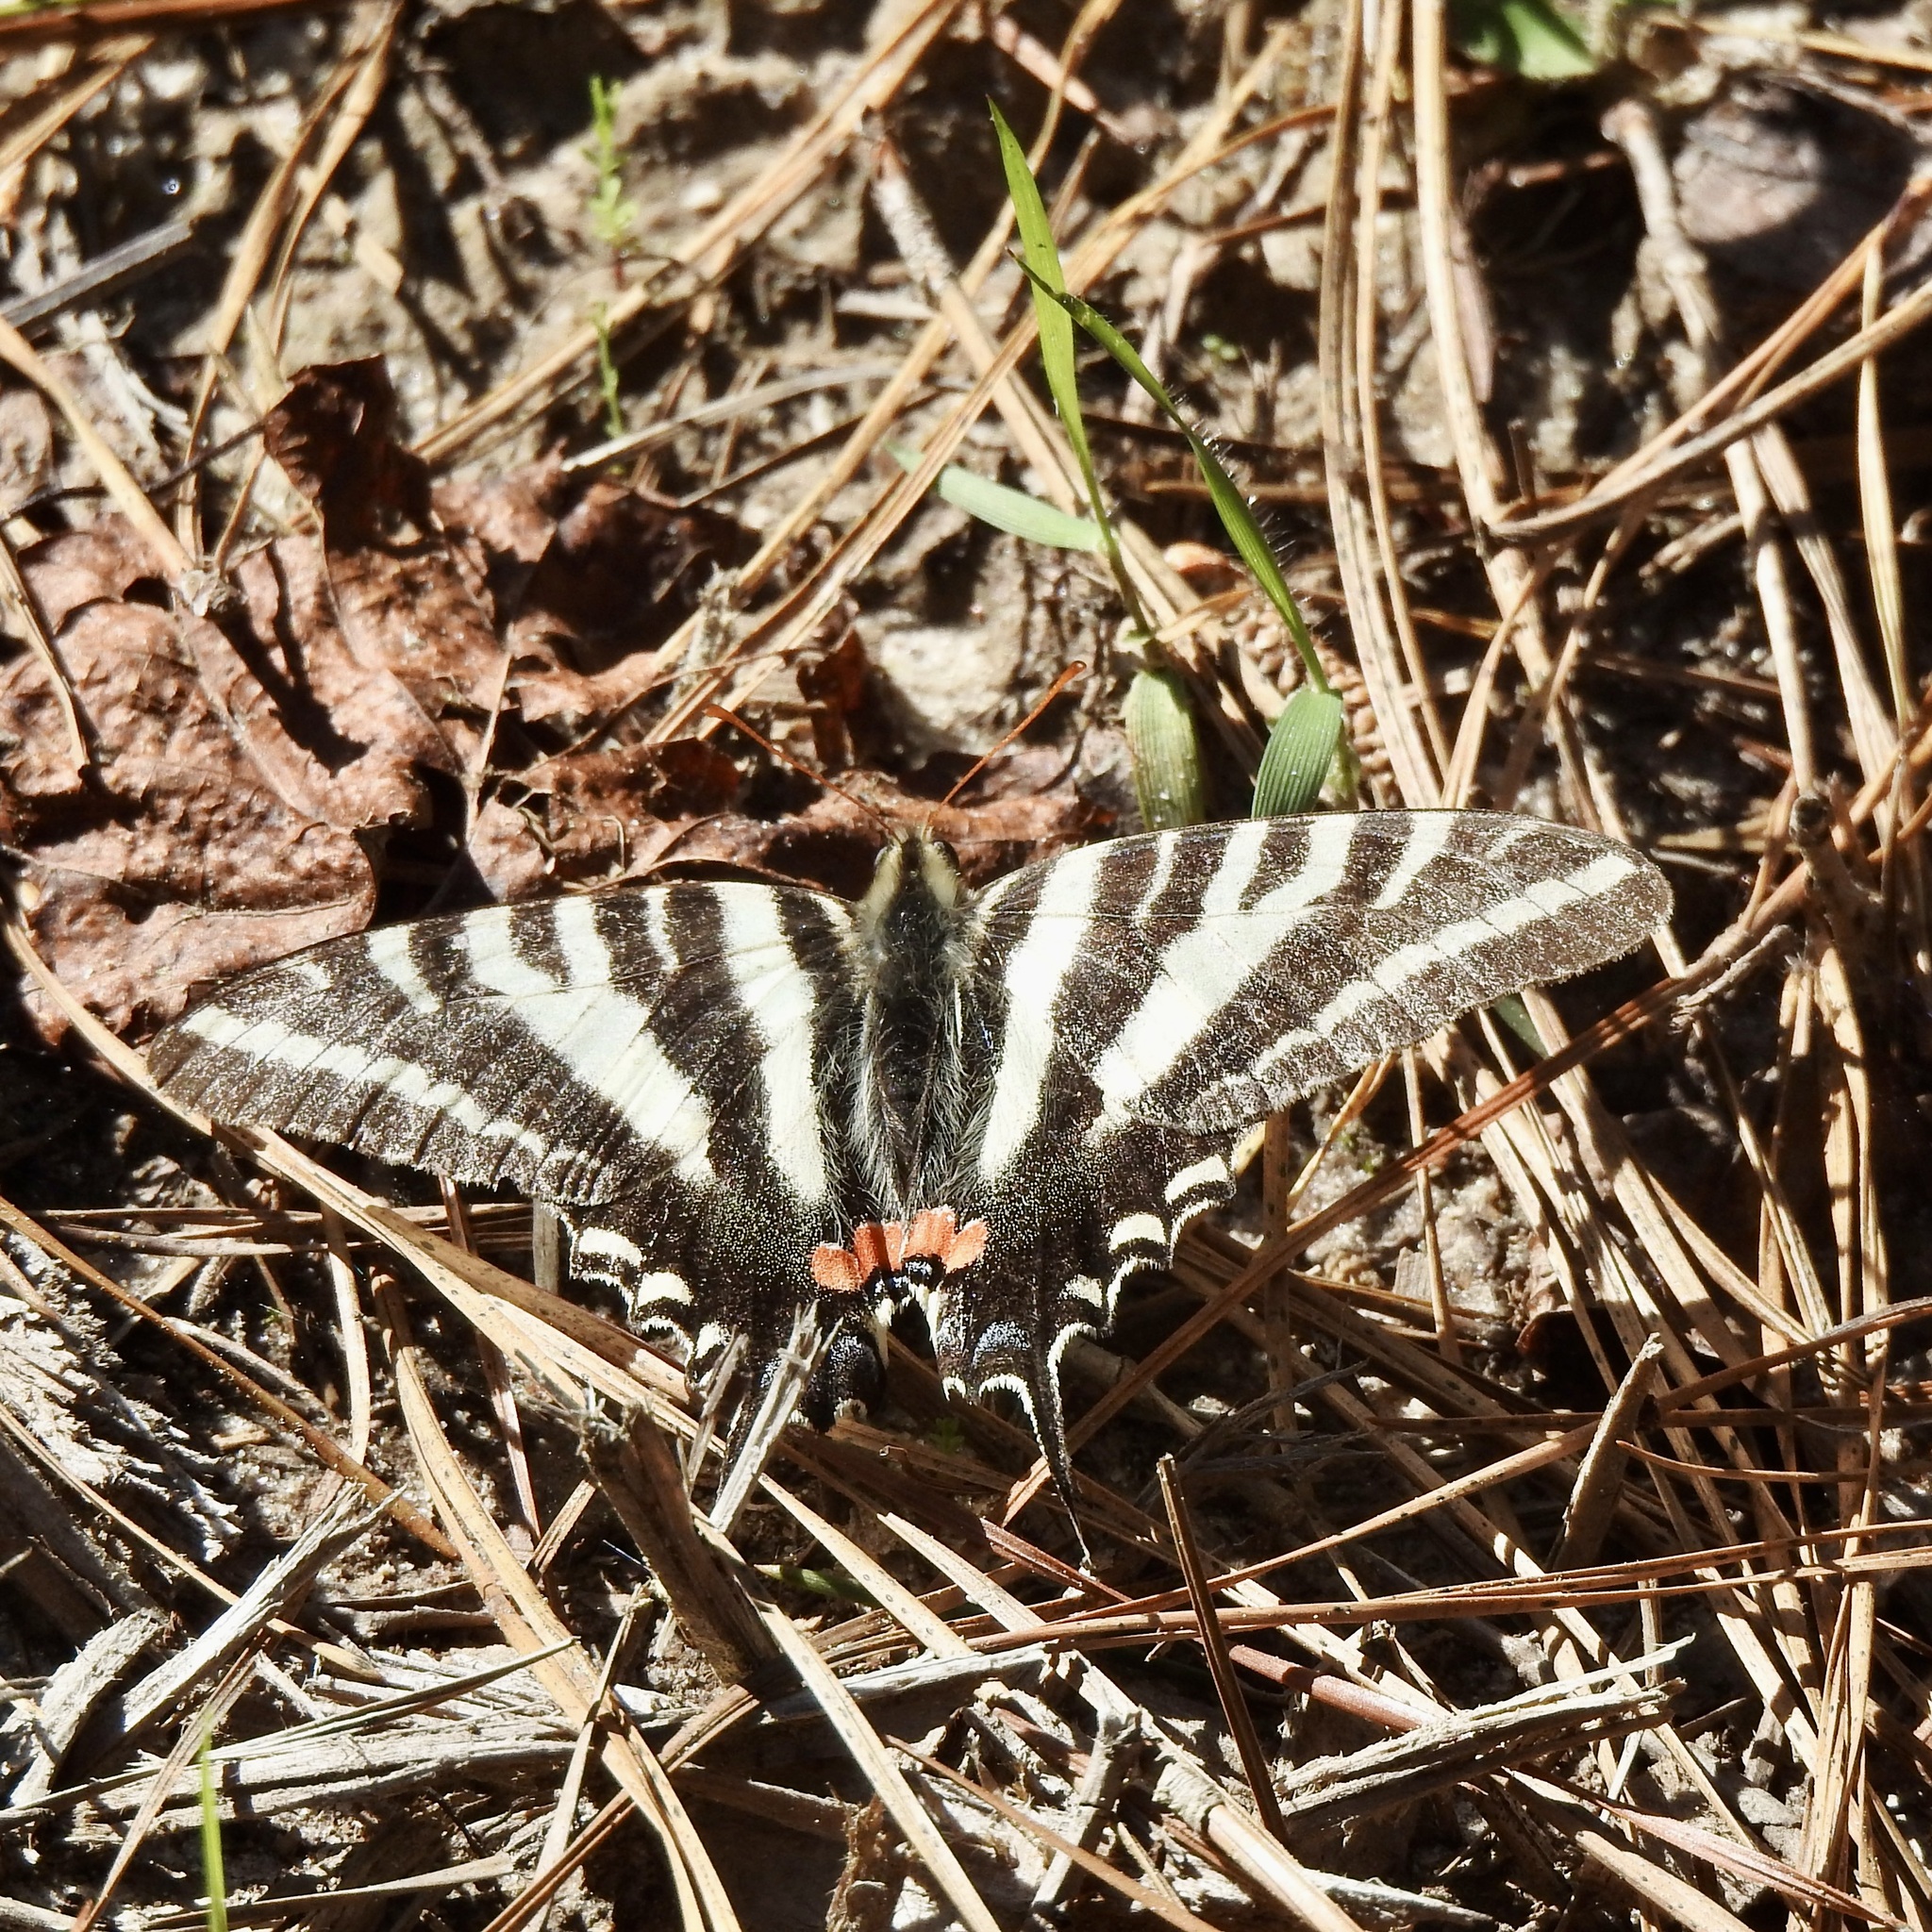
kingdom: Animalia
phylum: Arthropoda
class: Insecta
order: Lepidoptera
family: Papilionidae
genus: Protographium
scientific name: Protographium marcellus
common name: Zebra swallowtail
